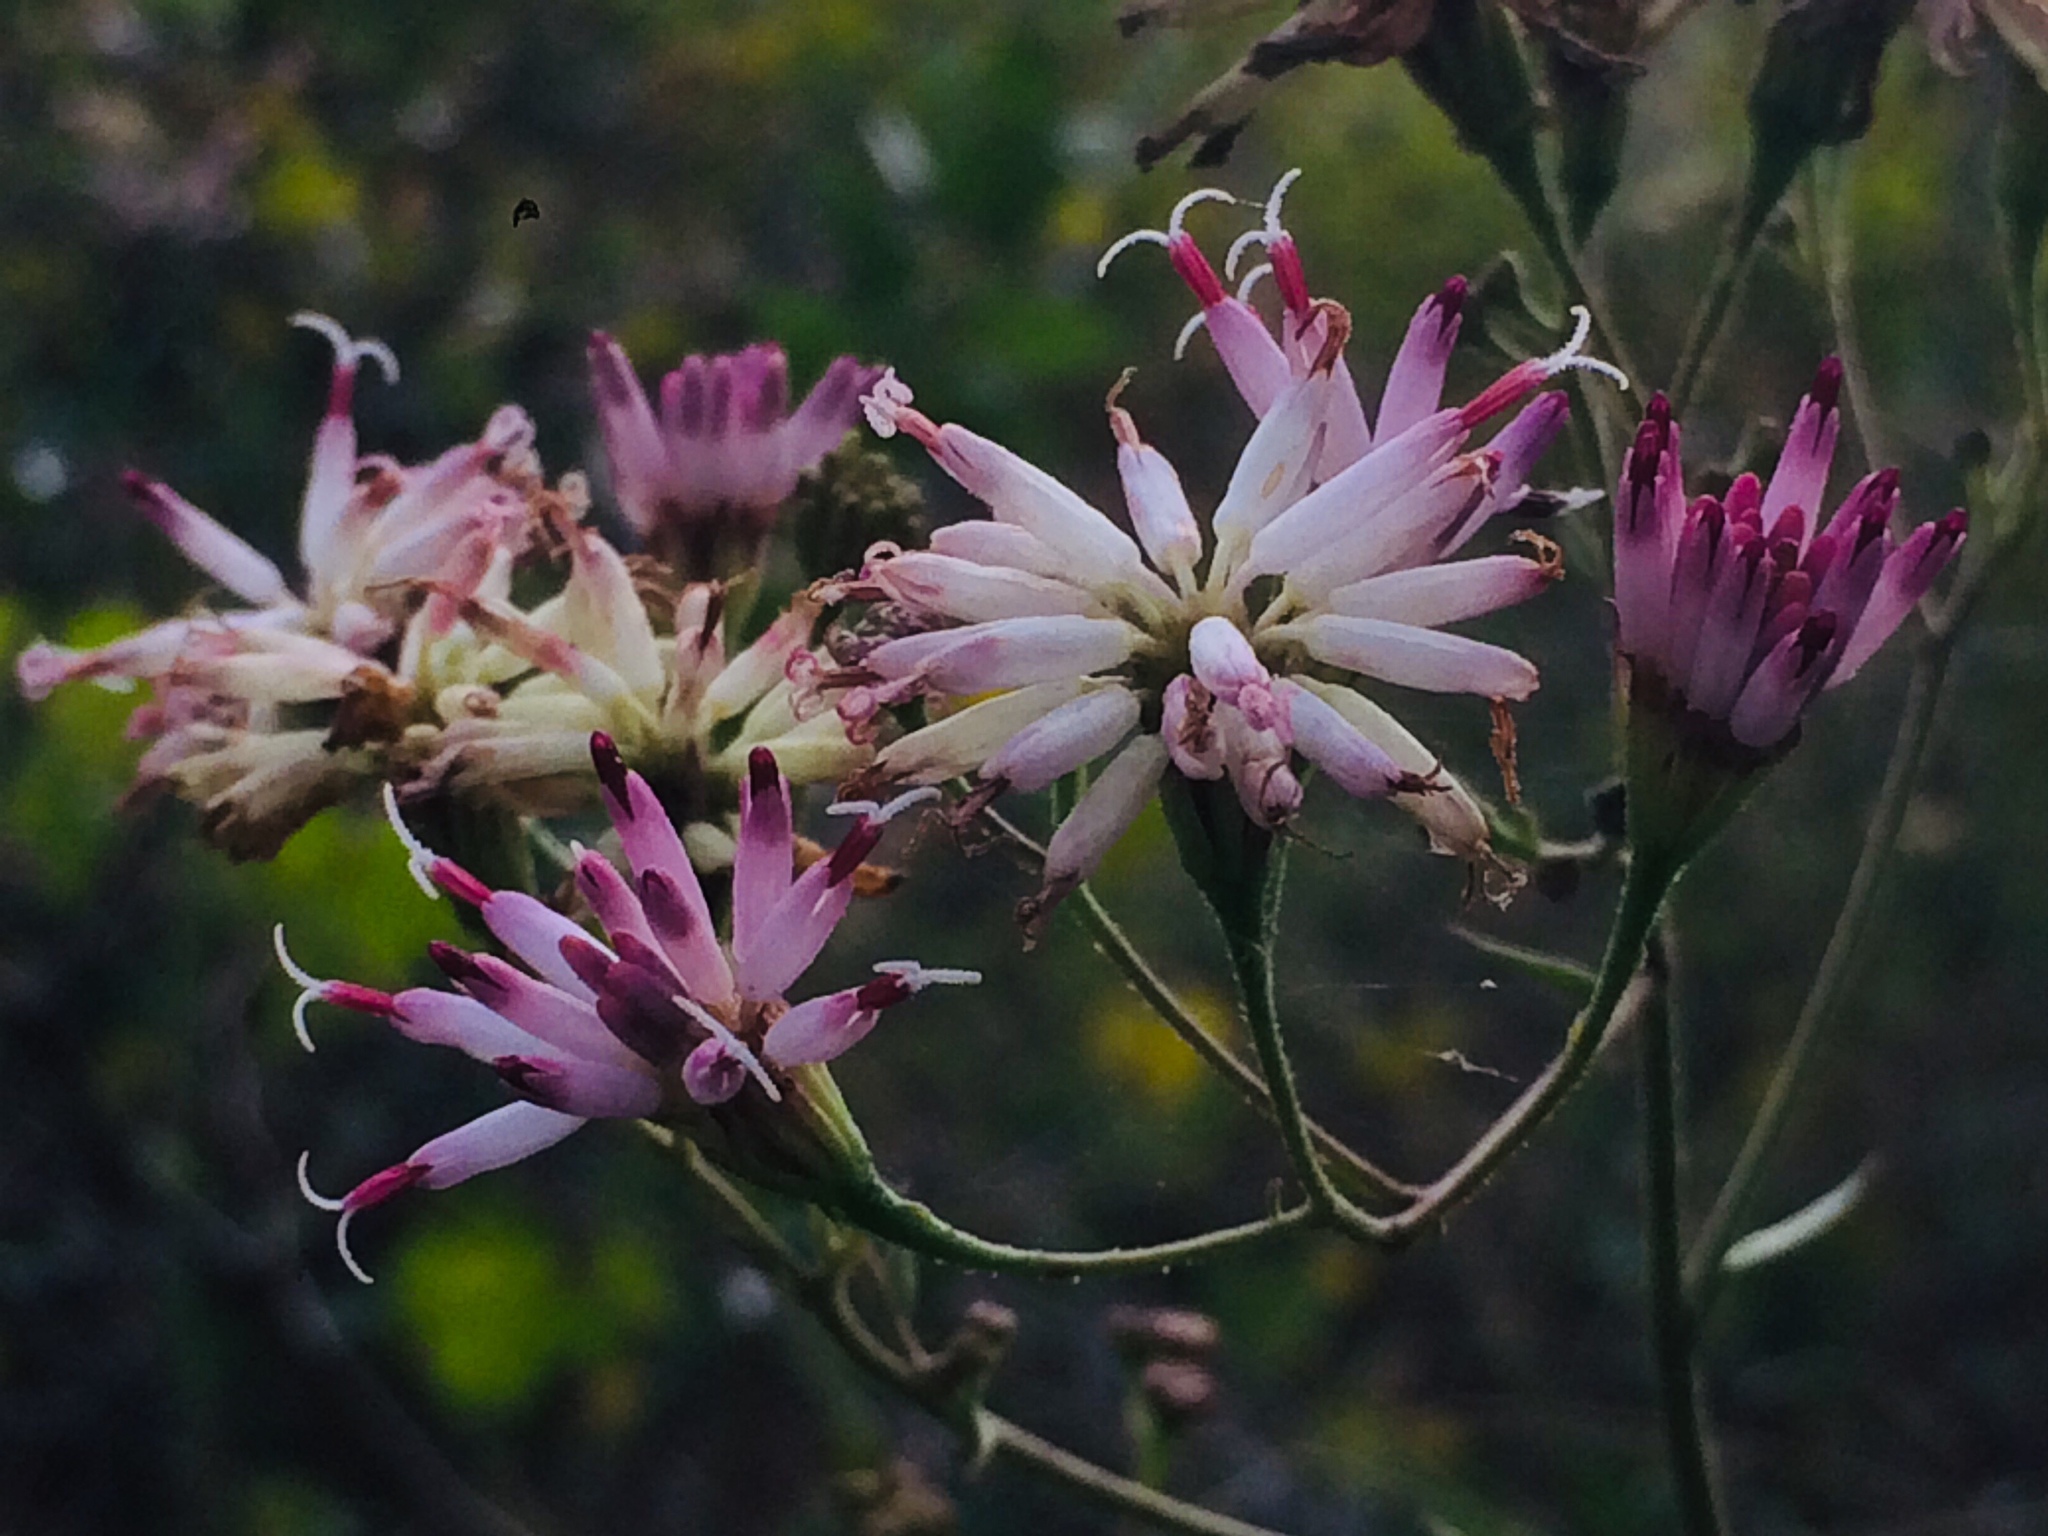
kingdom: Plantae
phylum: Tracheophyta
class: Magnoliopsida
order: Asterales
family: Asteraceae
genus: Palafoxia
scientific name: Palafoxia feayi
